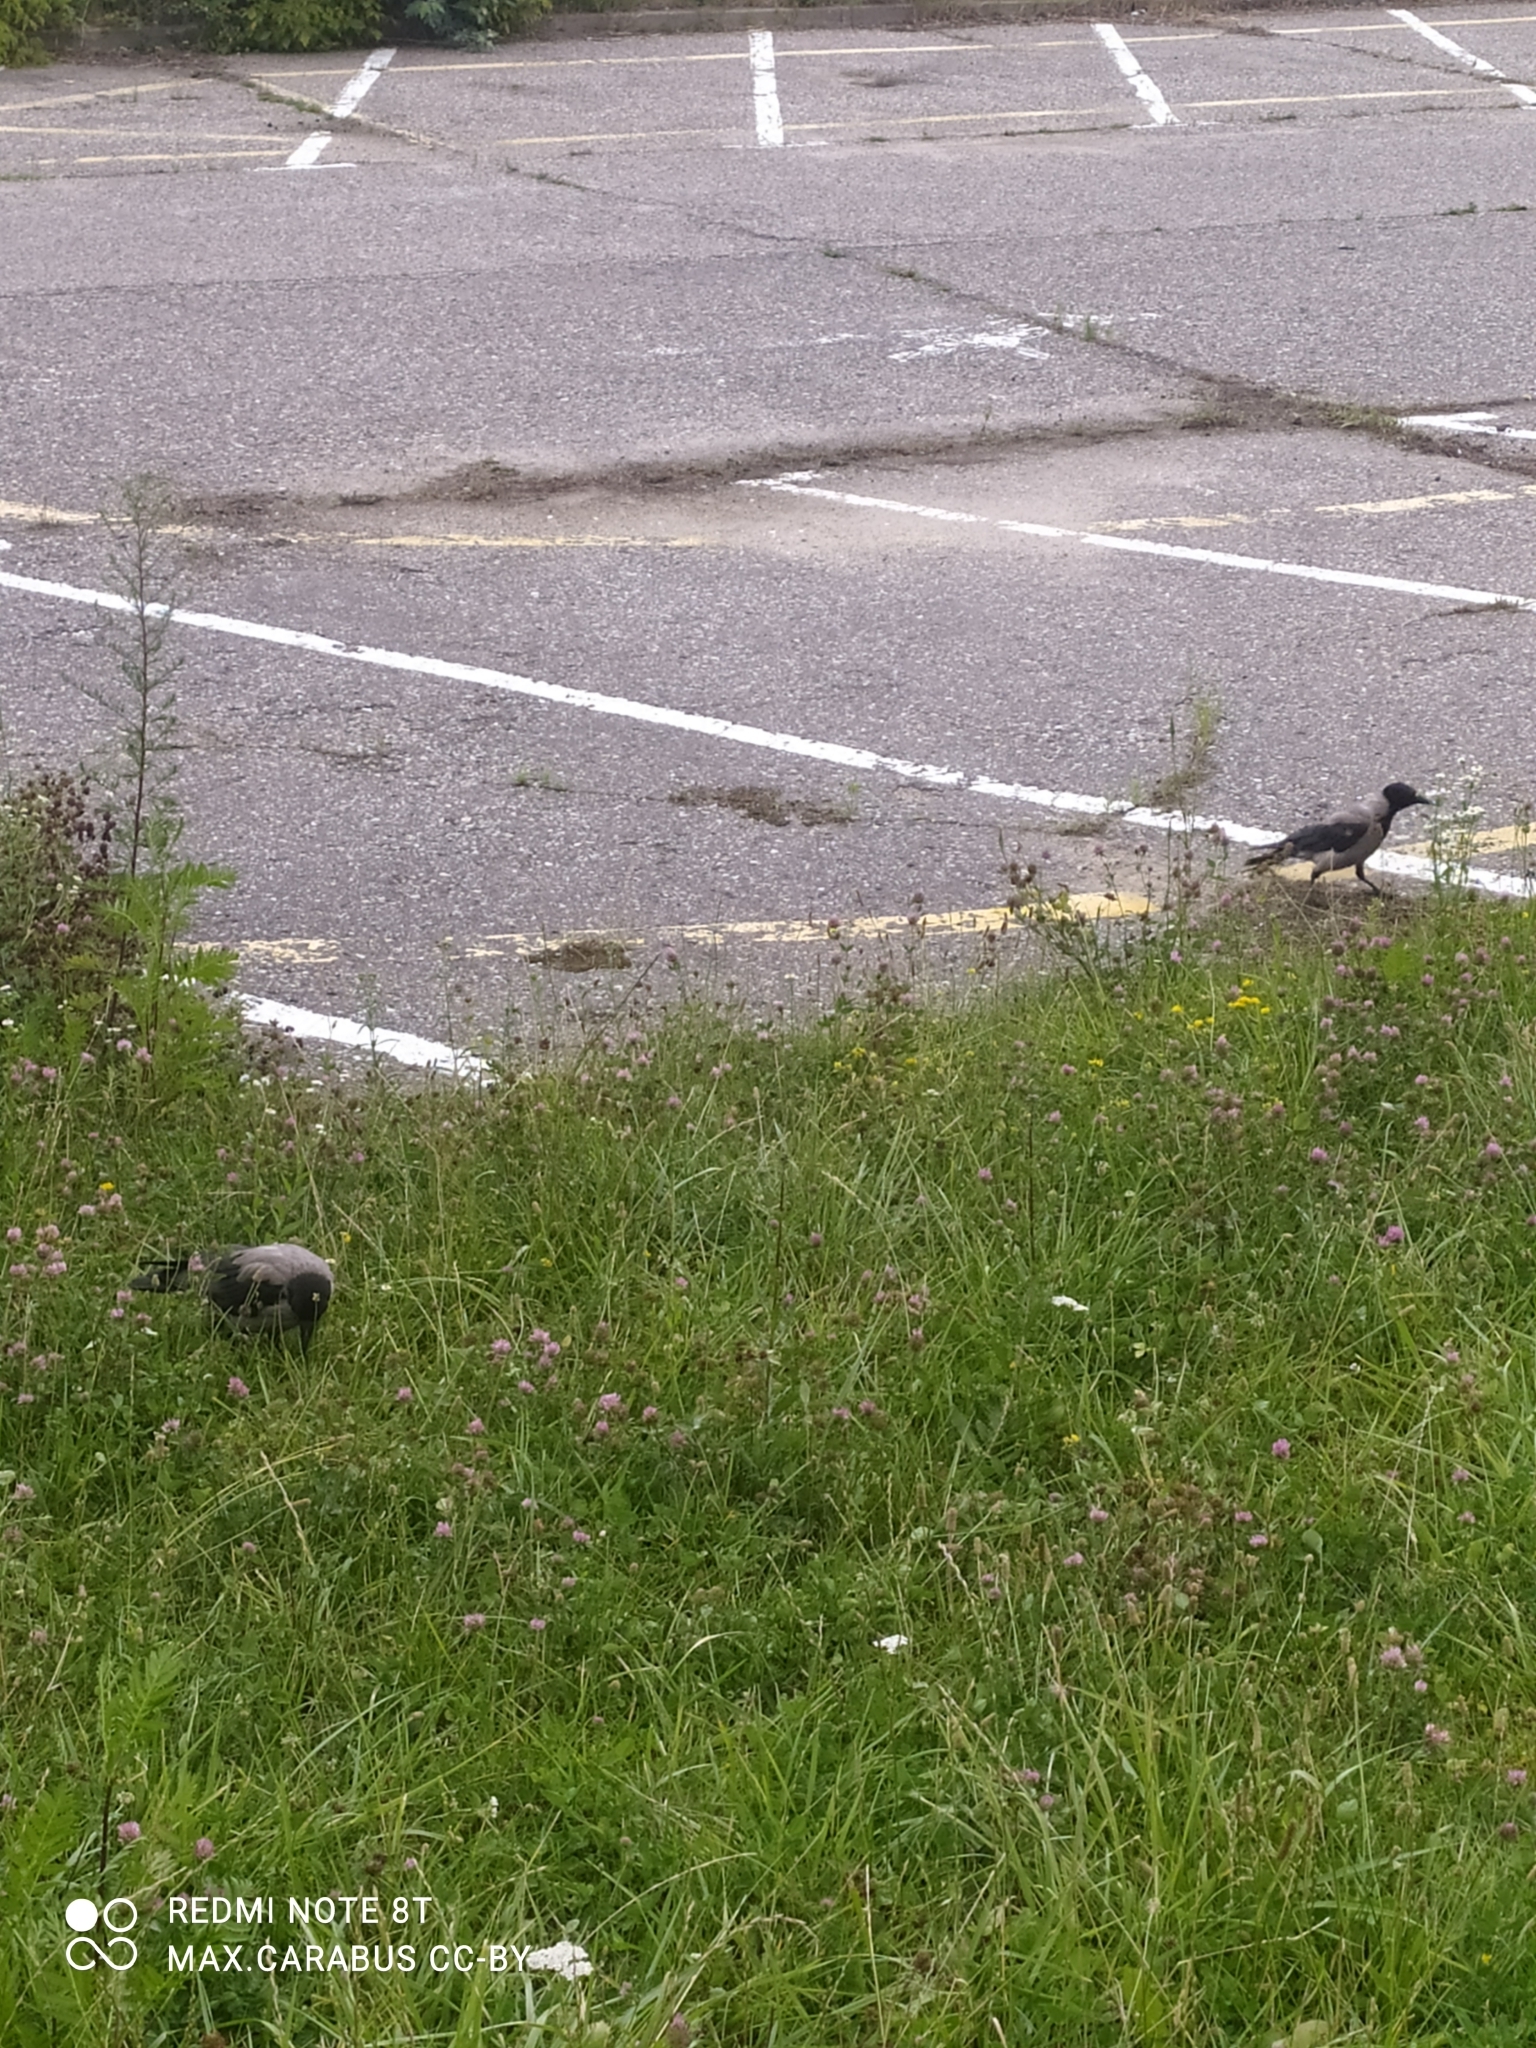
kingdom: Animalia
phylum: Chordata
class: Aves
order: Passeriformes
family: Corvidae
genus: Corvus
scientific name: Corvus cornix
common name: Hooded crow
